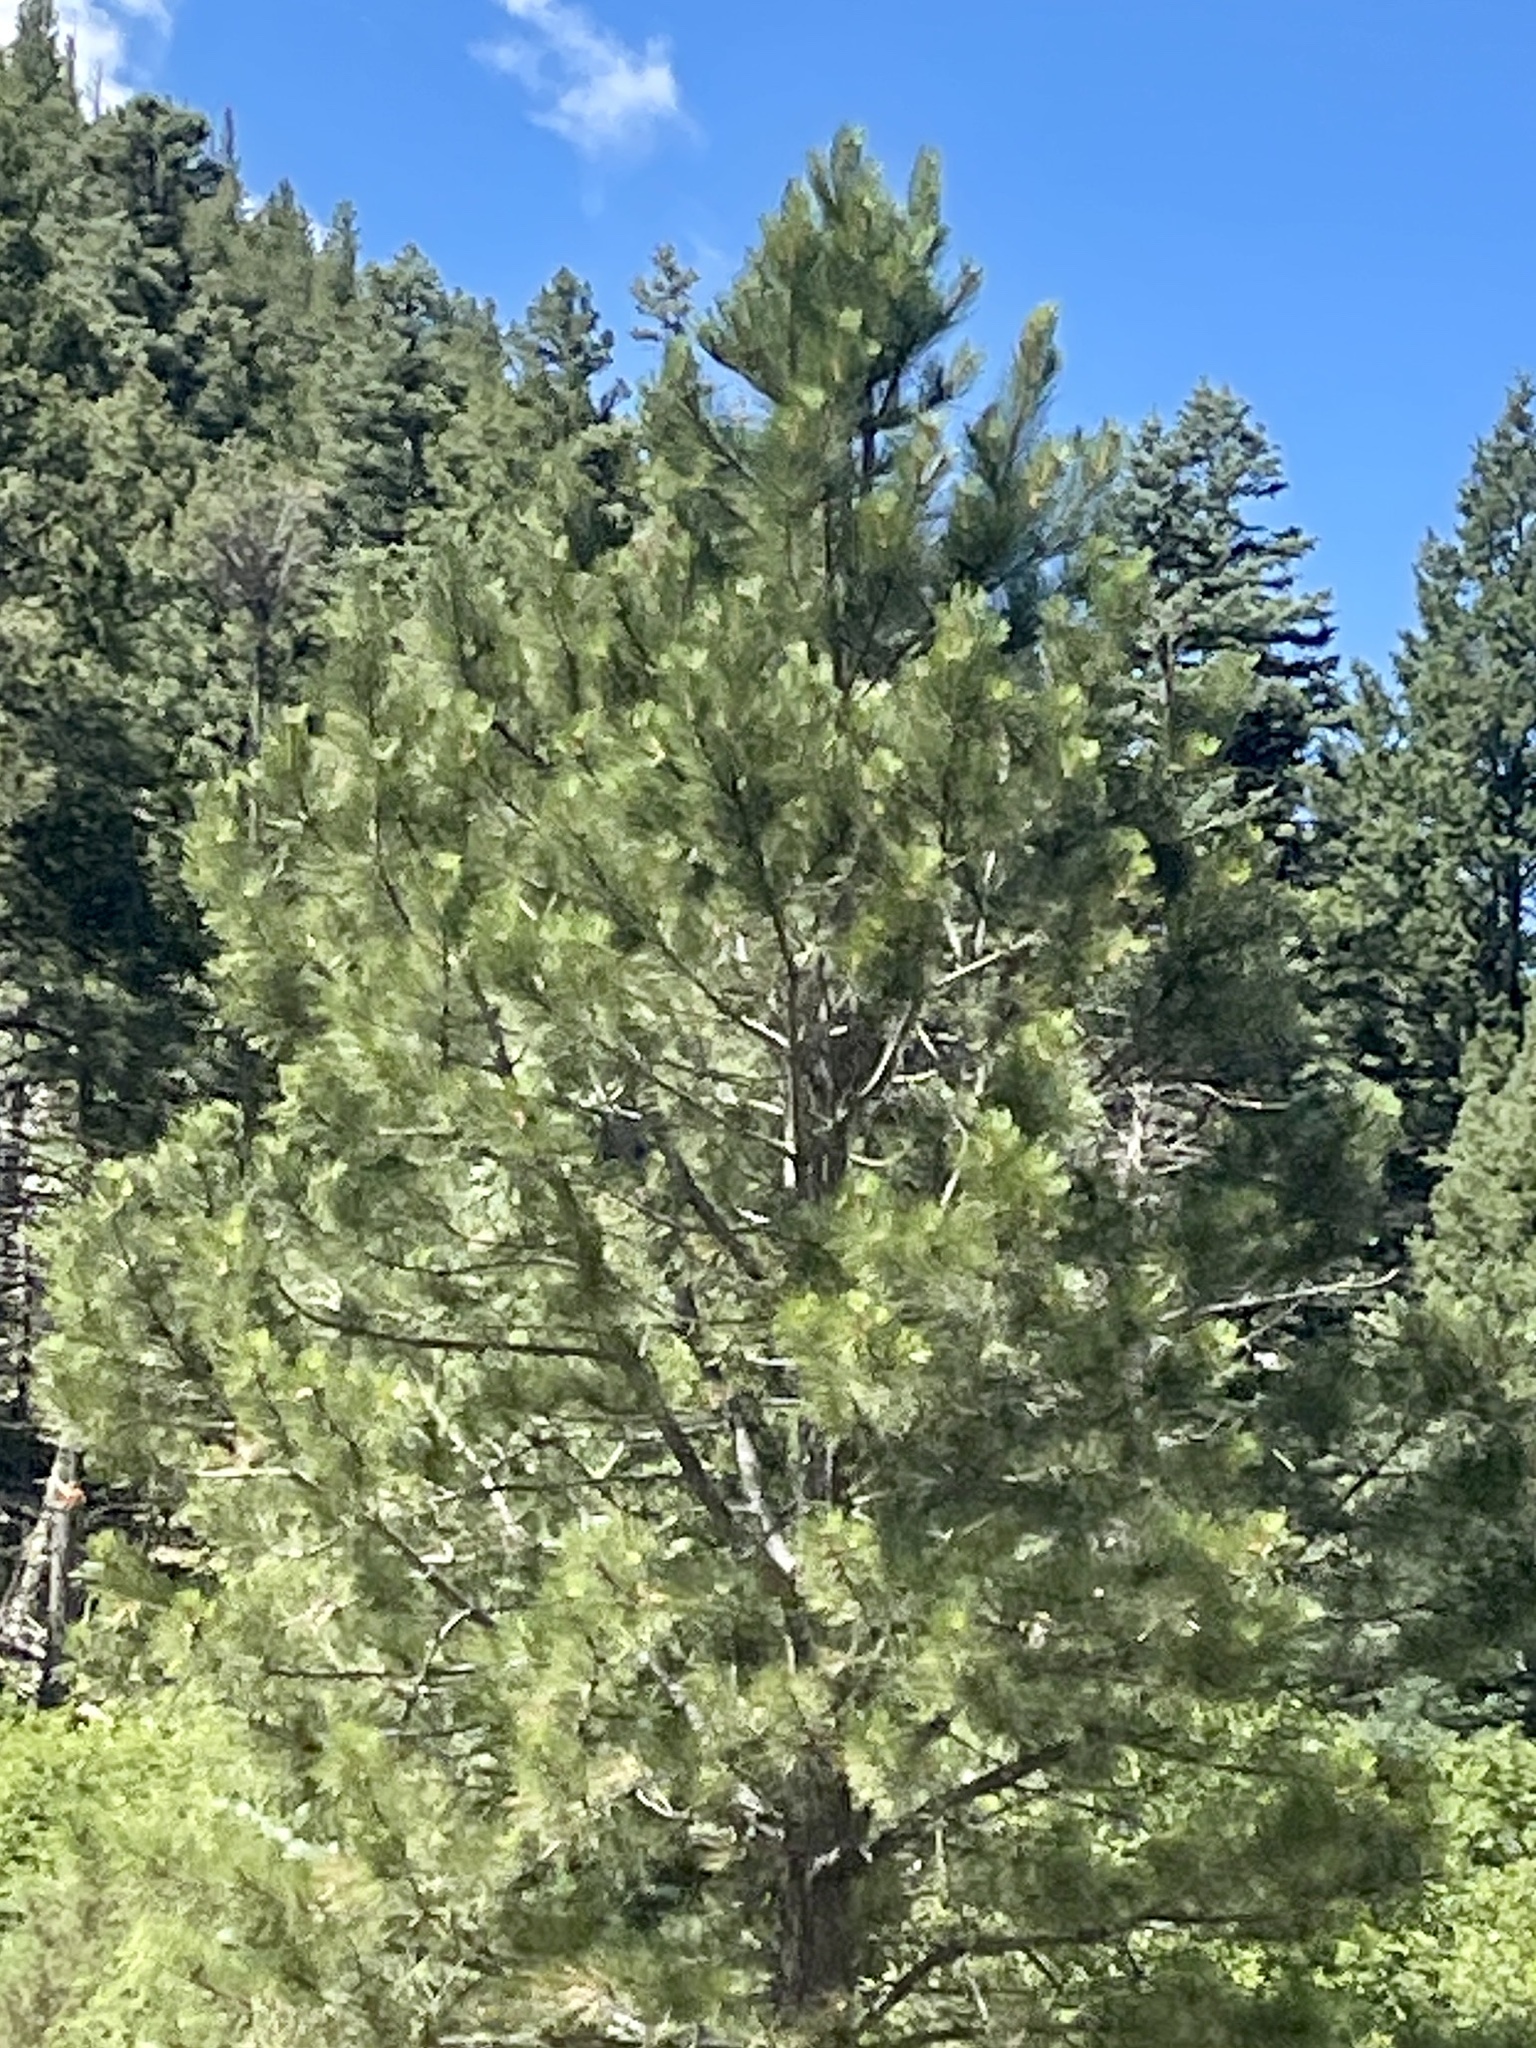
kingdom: Plantae
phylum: Tracheophyta
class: Pinopsida
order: Pinales
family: Pinaceae
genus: Pinus
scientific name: Pinus ponderosa
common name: Western yellow-pine
